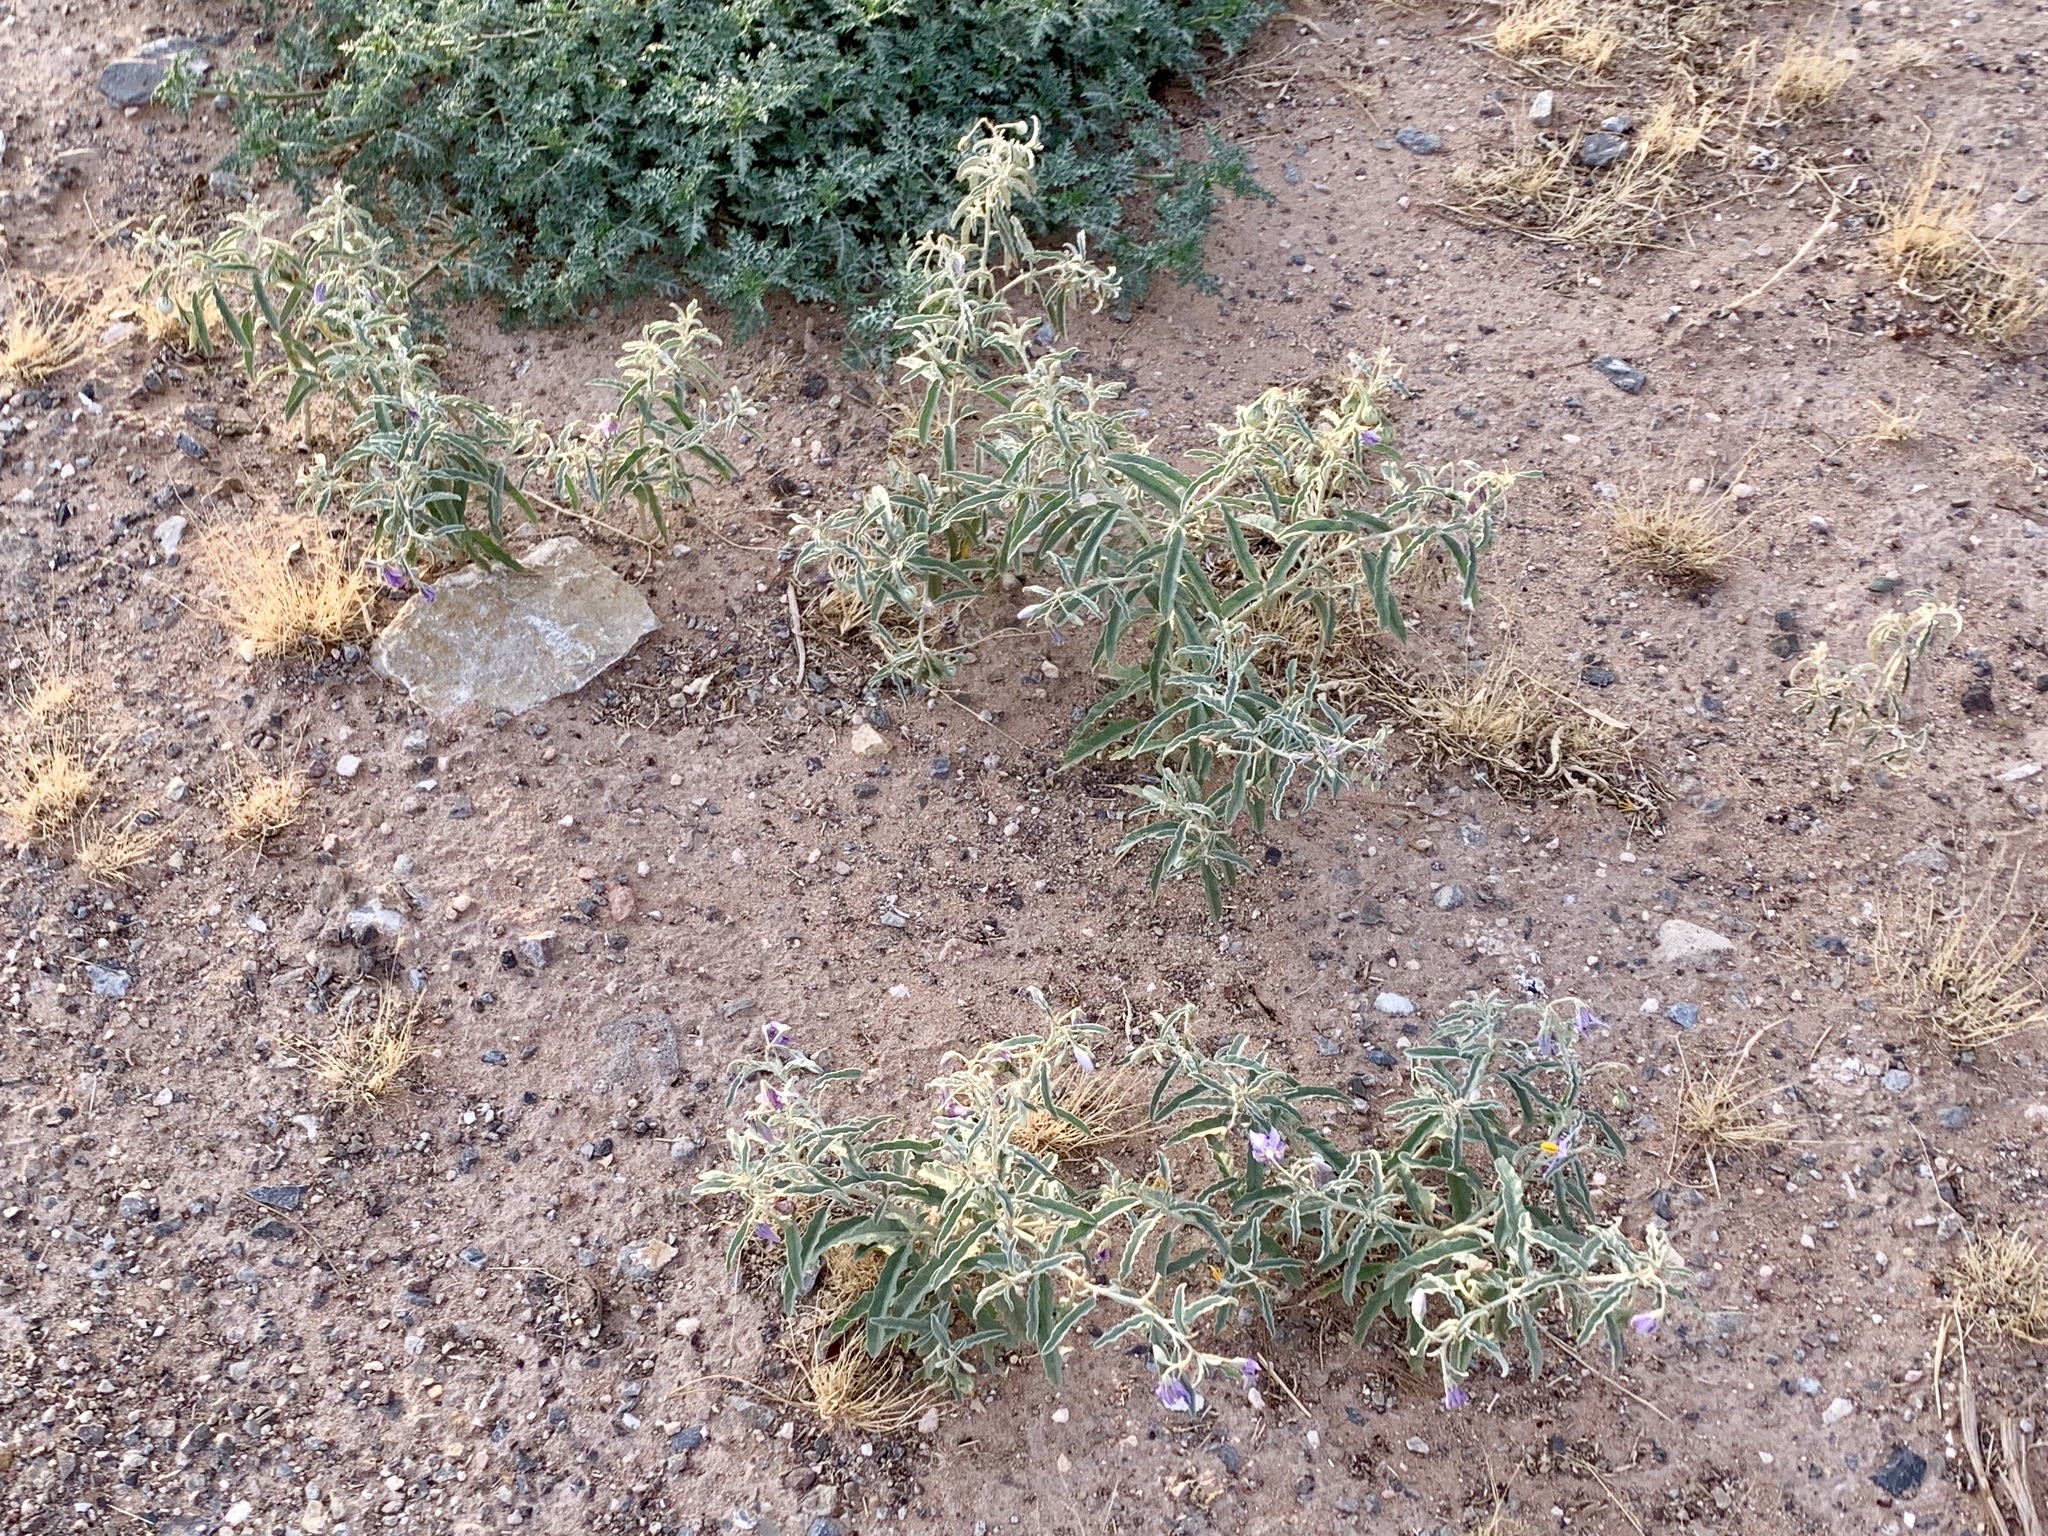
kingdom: Plantae
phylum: Tracheophyta
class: Magnoliopsida
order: Solanales
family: Solanaceae
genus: Solanum
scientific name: Solanum elaeagnifolium
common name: Silverleaf nightshade
